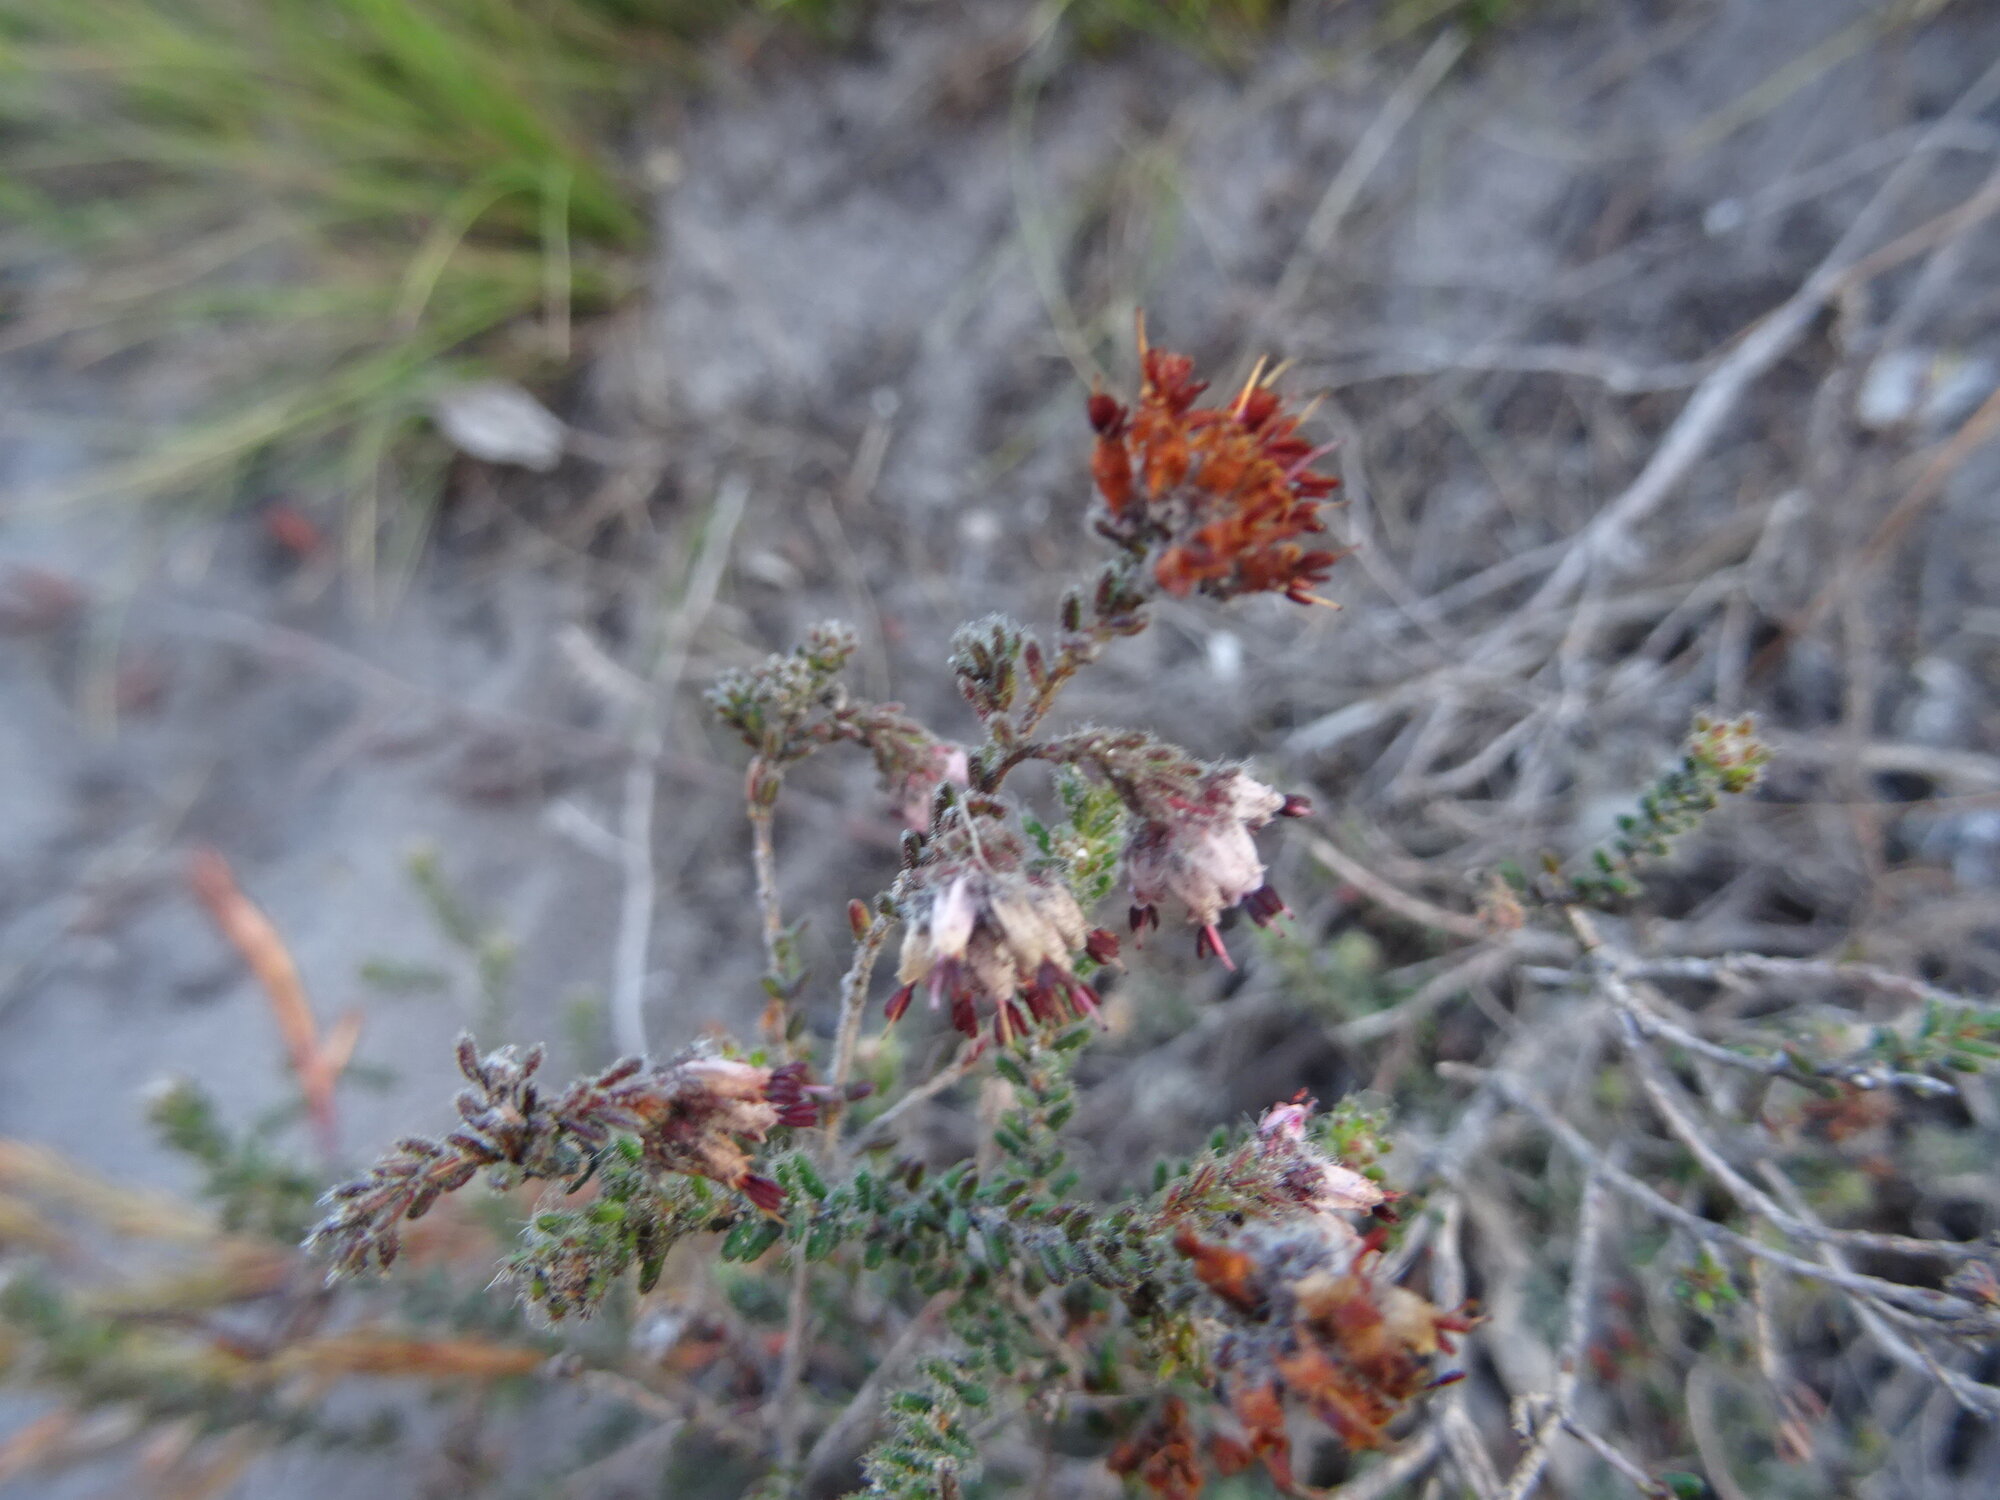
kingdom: Plantae
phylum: Tracheophyta
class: Magnoliopsida
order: Ericales
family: Ericaceae
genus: Erica
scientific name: Erica similis
